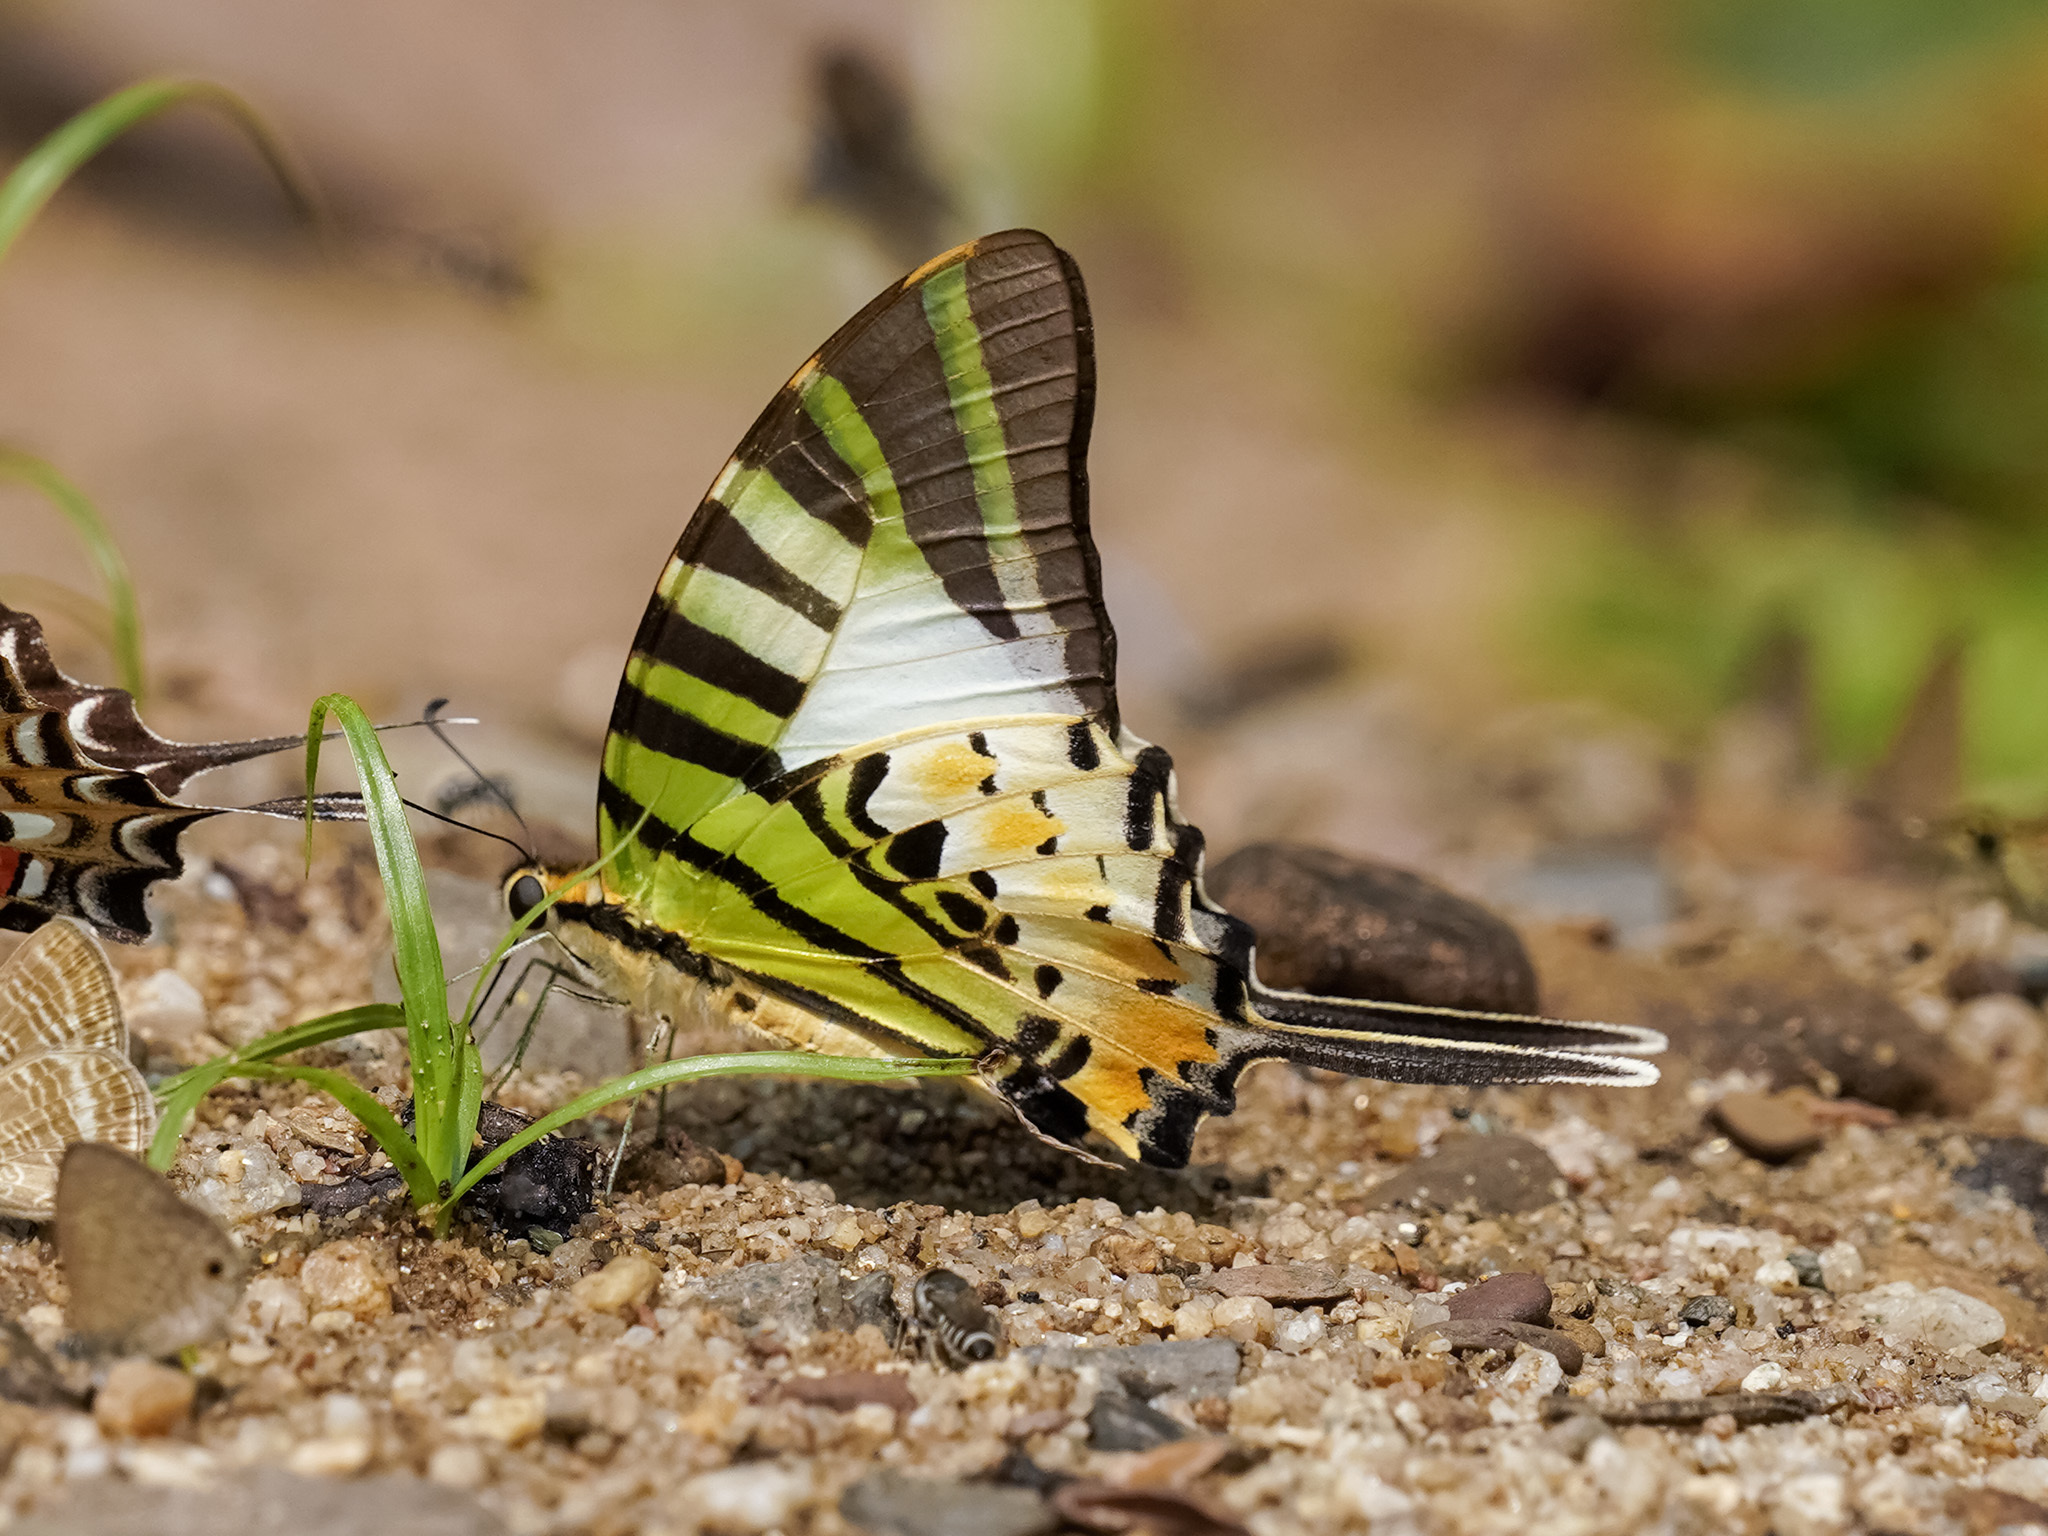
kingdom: Animalia
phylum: Arthropoda
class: Insecta
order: Lepidoptera
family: Papilionidae
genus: Graphium
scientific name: Graphium antiphates
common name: Fivebar swordtail
